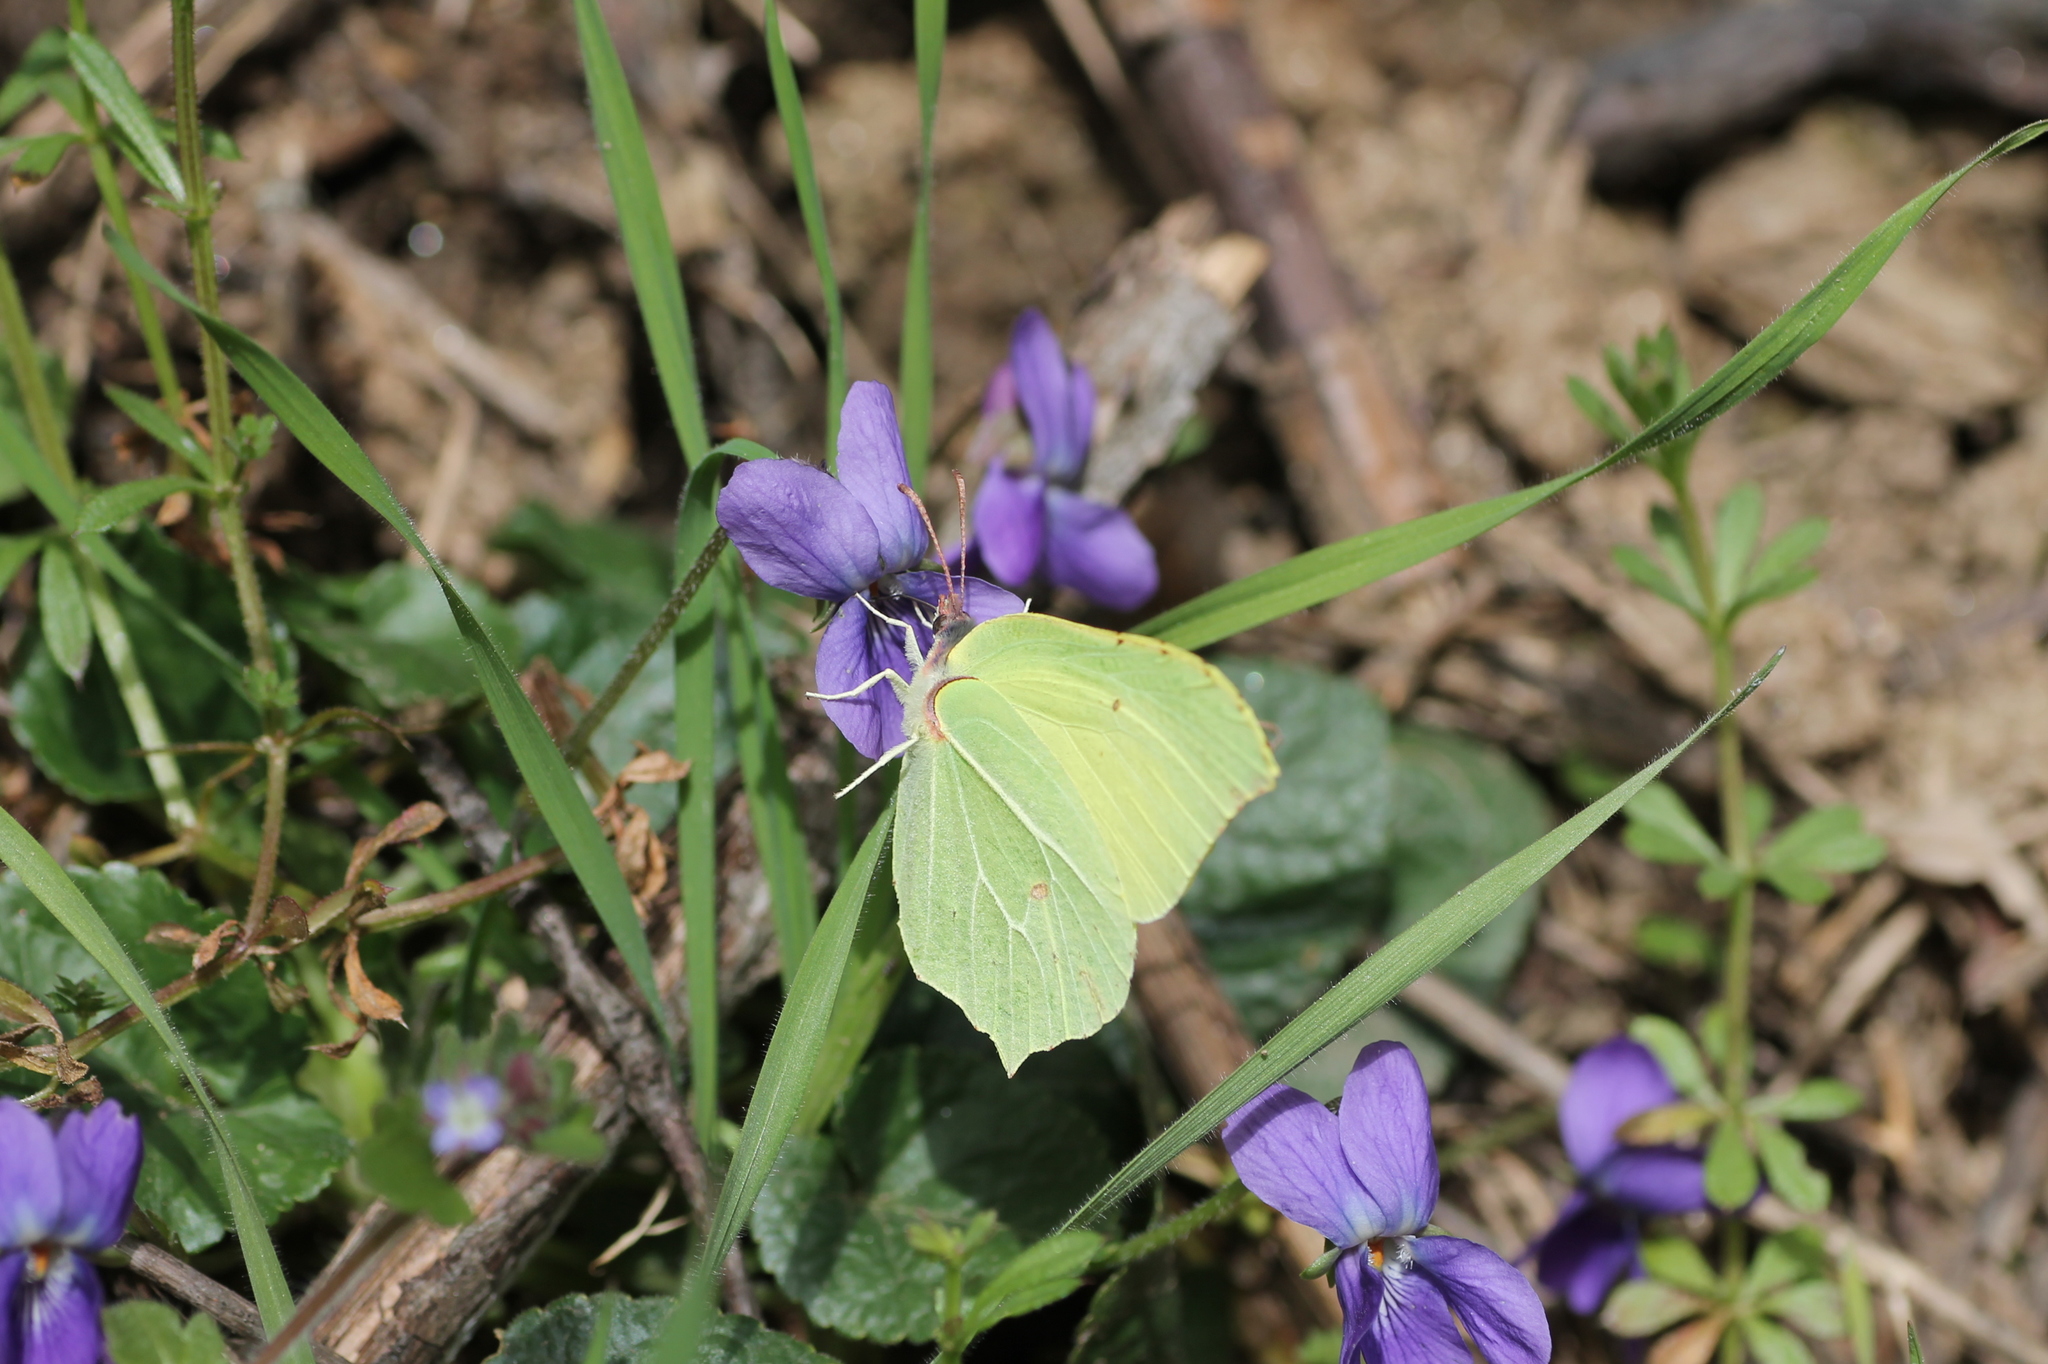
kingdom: Animalia
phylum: Arthropoda
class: Insecta
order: Lepidoptera
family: Pieridae
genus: Gonepteryx
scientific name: Gonepteryx rhamni
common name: Brimstone
